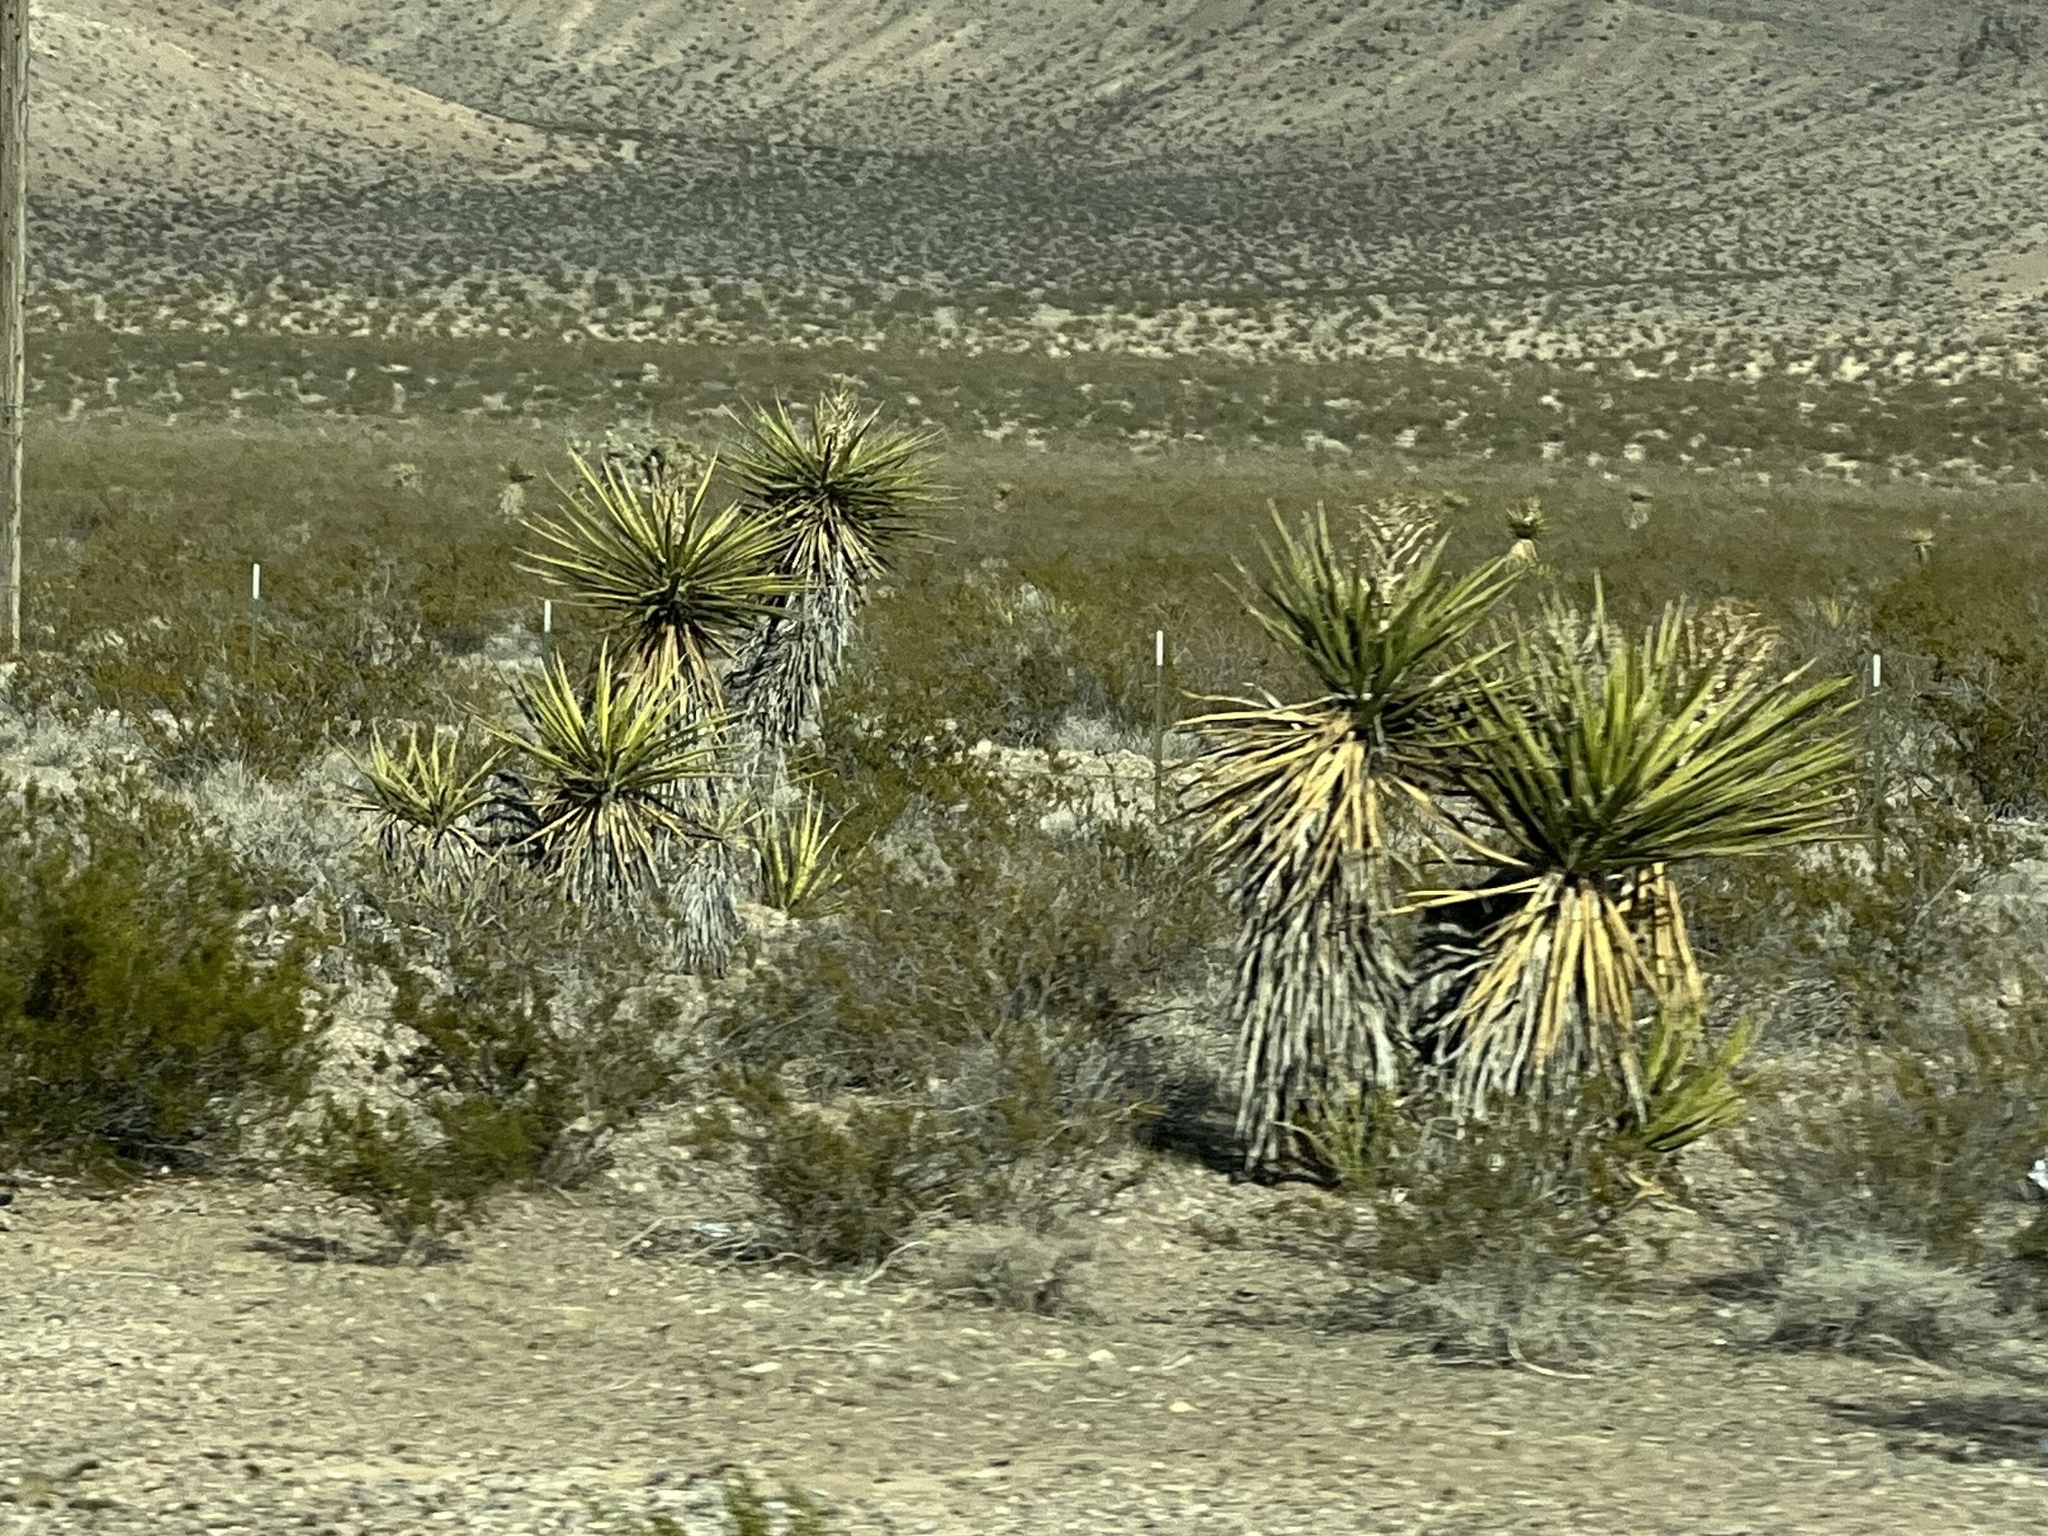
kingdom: Plantae
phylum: Tracheophyta
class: Liliopsida
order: Asparagales
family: Asparagaceae
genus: Yucca
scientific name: Yucca schidigera
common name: Mojave yucca
